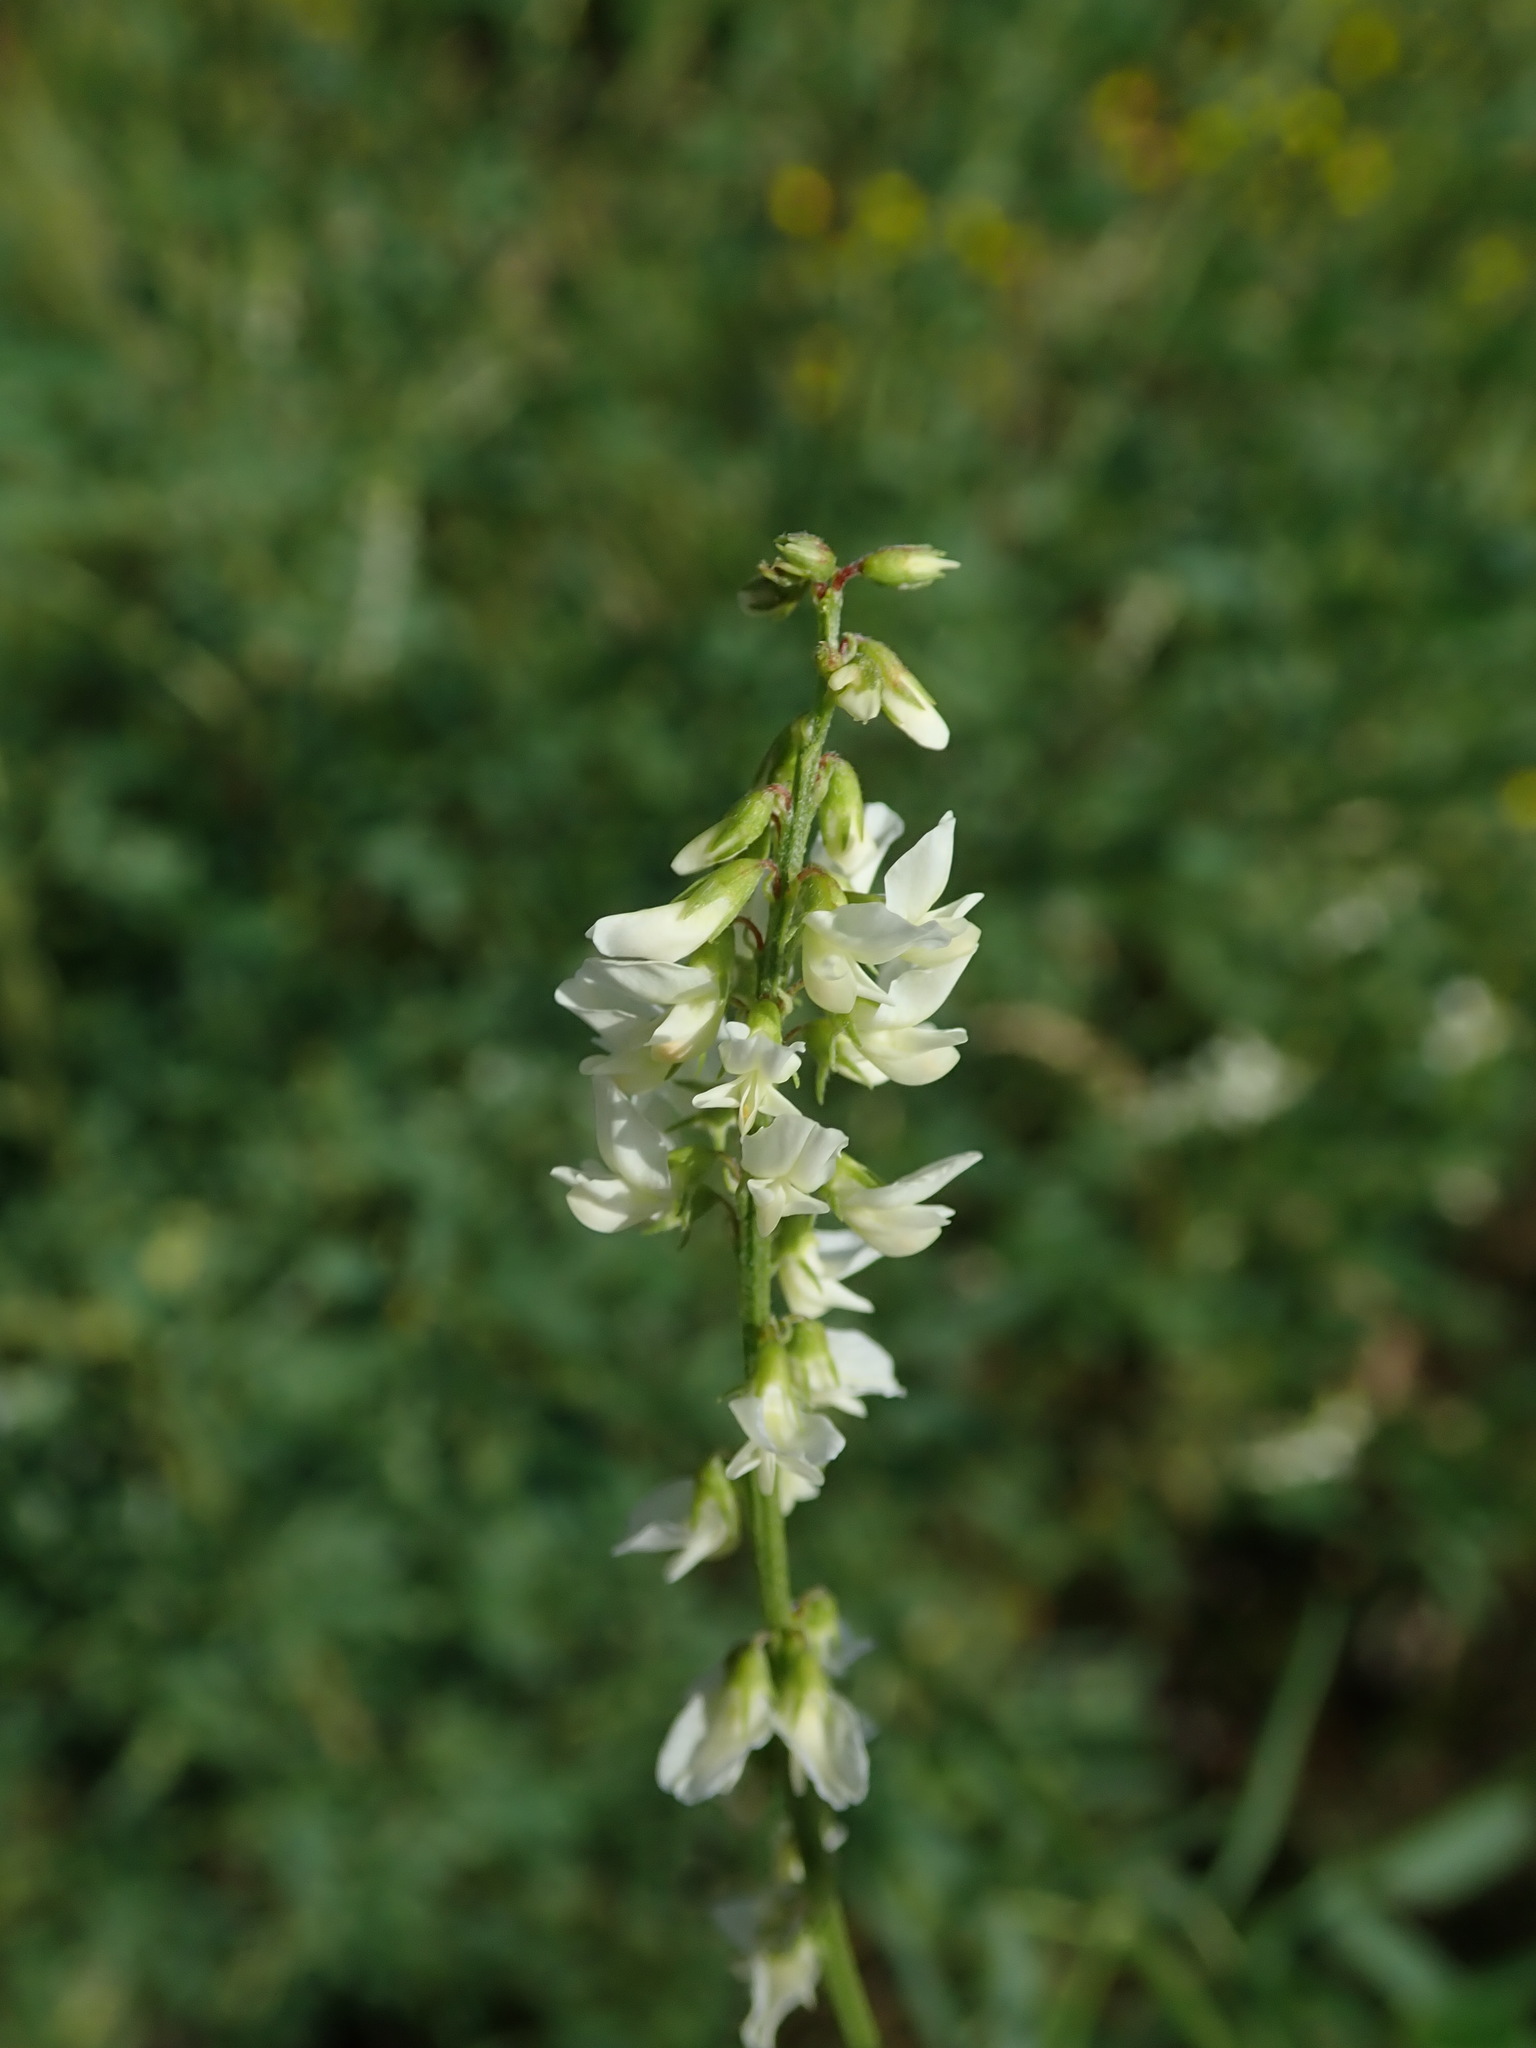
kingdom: Plantae
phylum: Tracheophyta
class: Magnoliopsida
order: Fabales
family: Fabaceae
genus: Melilotus
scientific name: Melilotus albus
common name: White melilot
